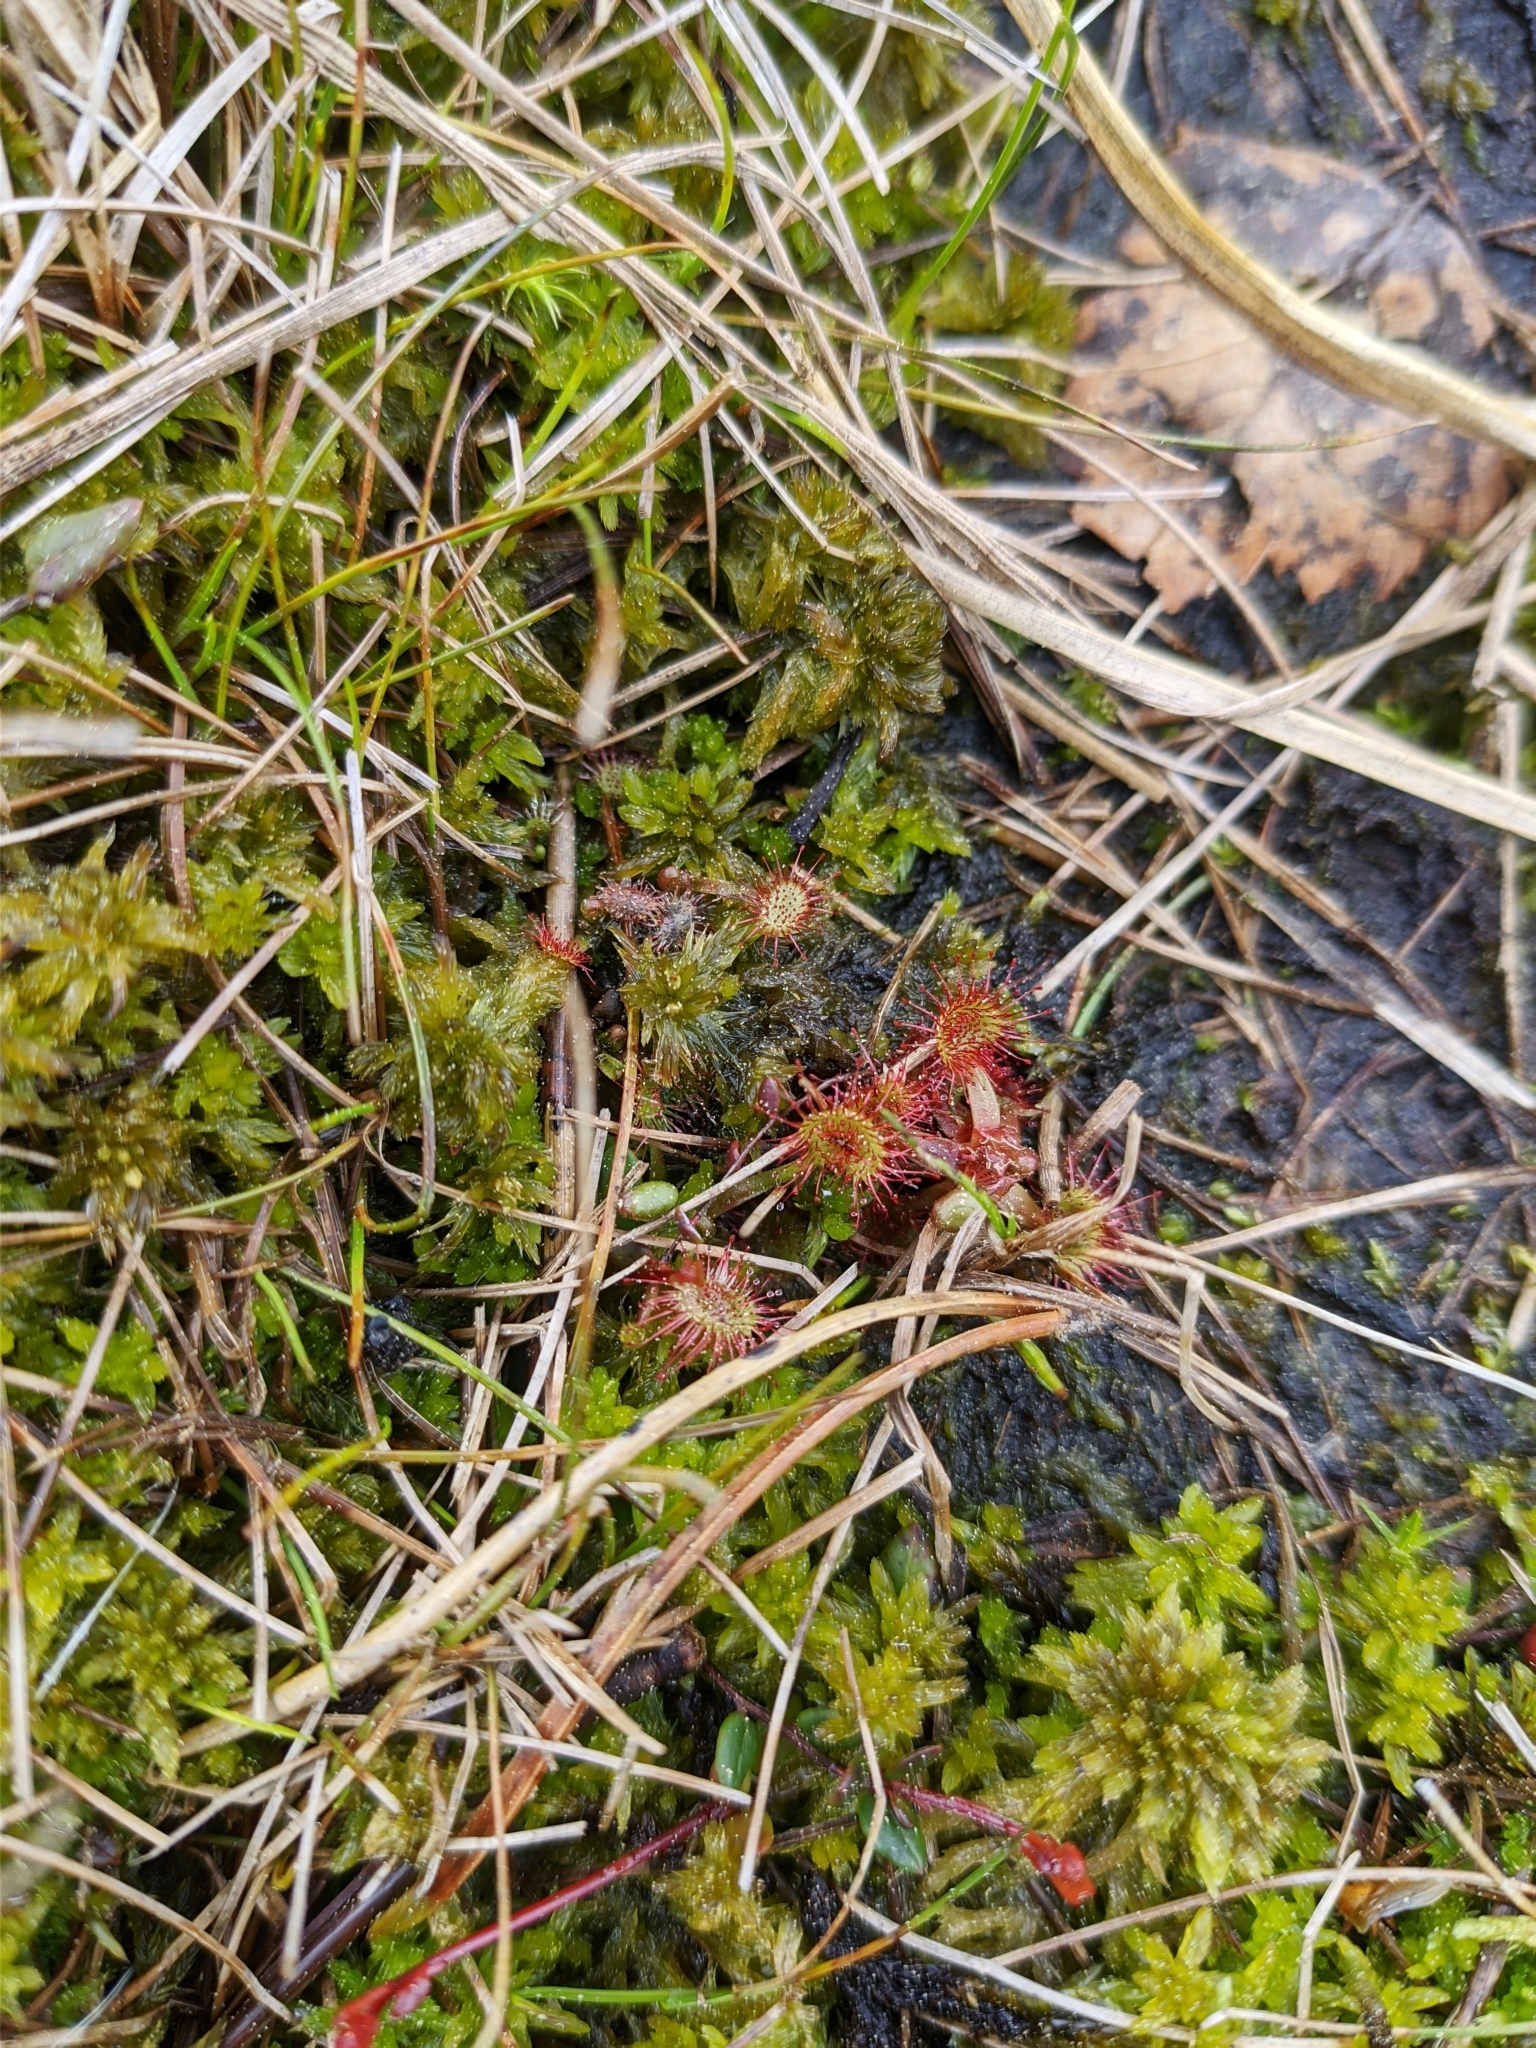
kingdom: Plantae
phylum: Tracheophyta
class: Magnoliopsida
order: Caryophyllales
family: Droseraceae
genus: Drosera
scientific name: Drosera rotundifolia
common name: Round-leaved sundew
